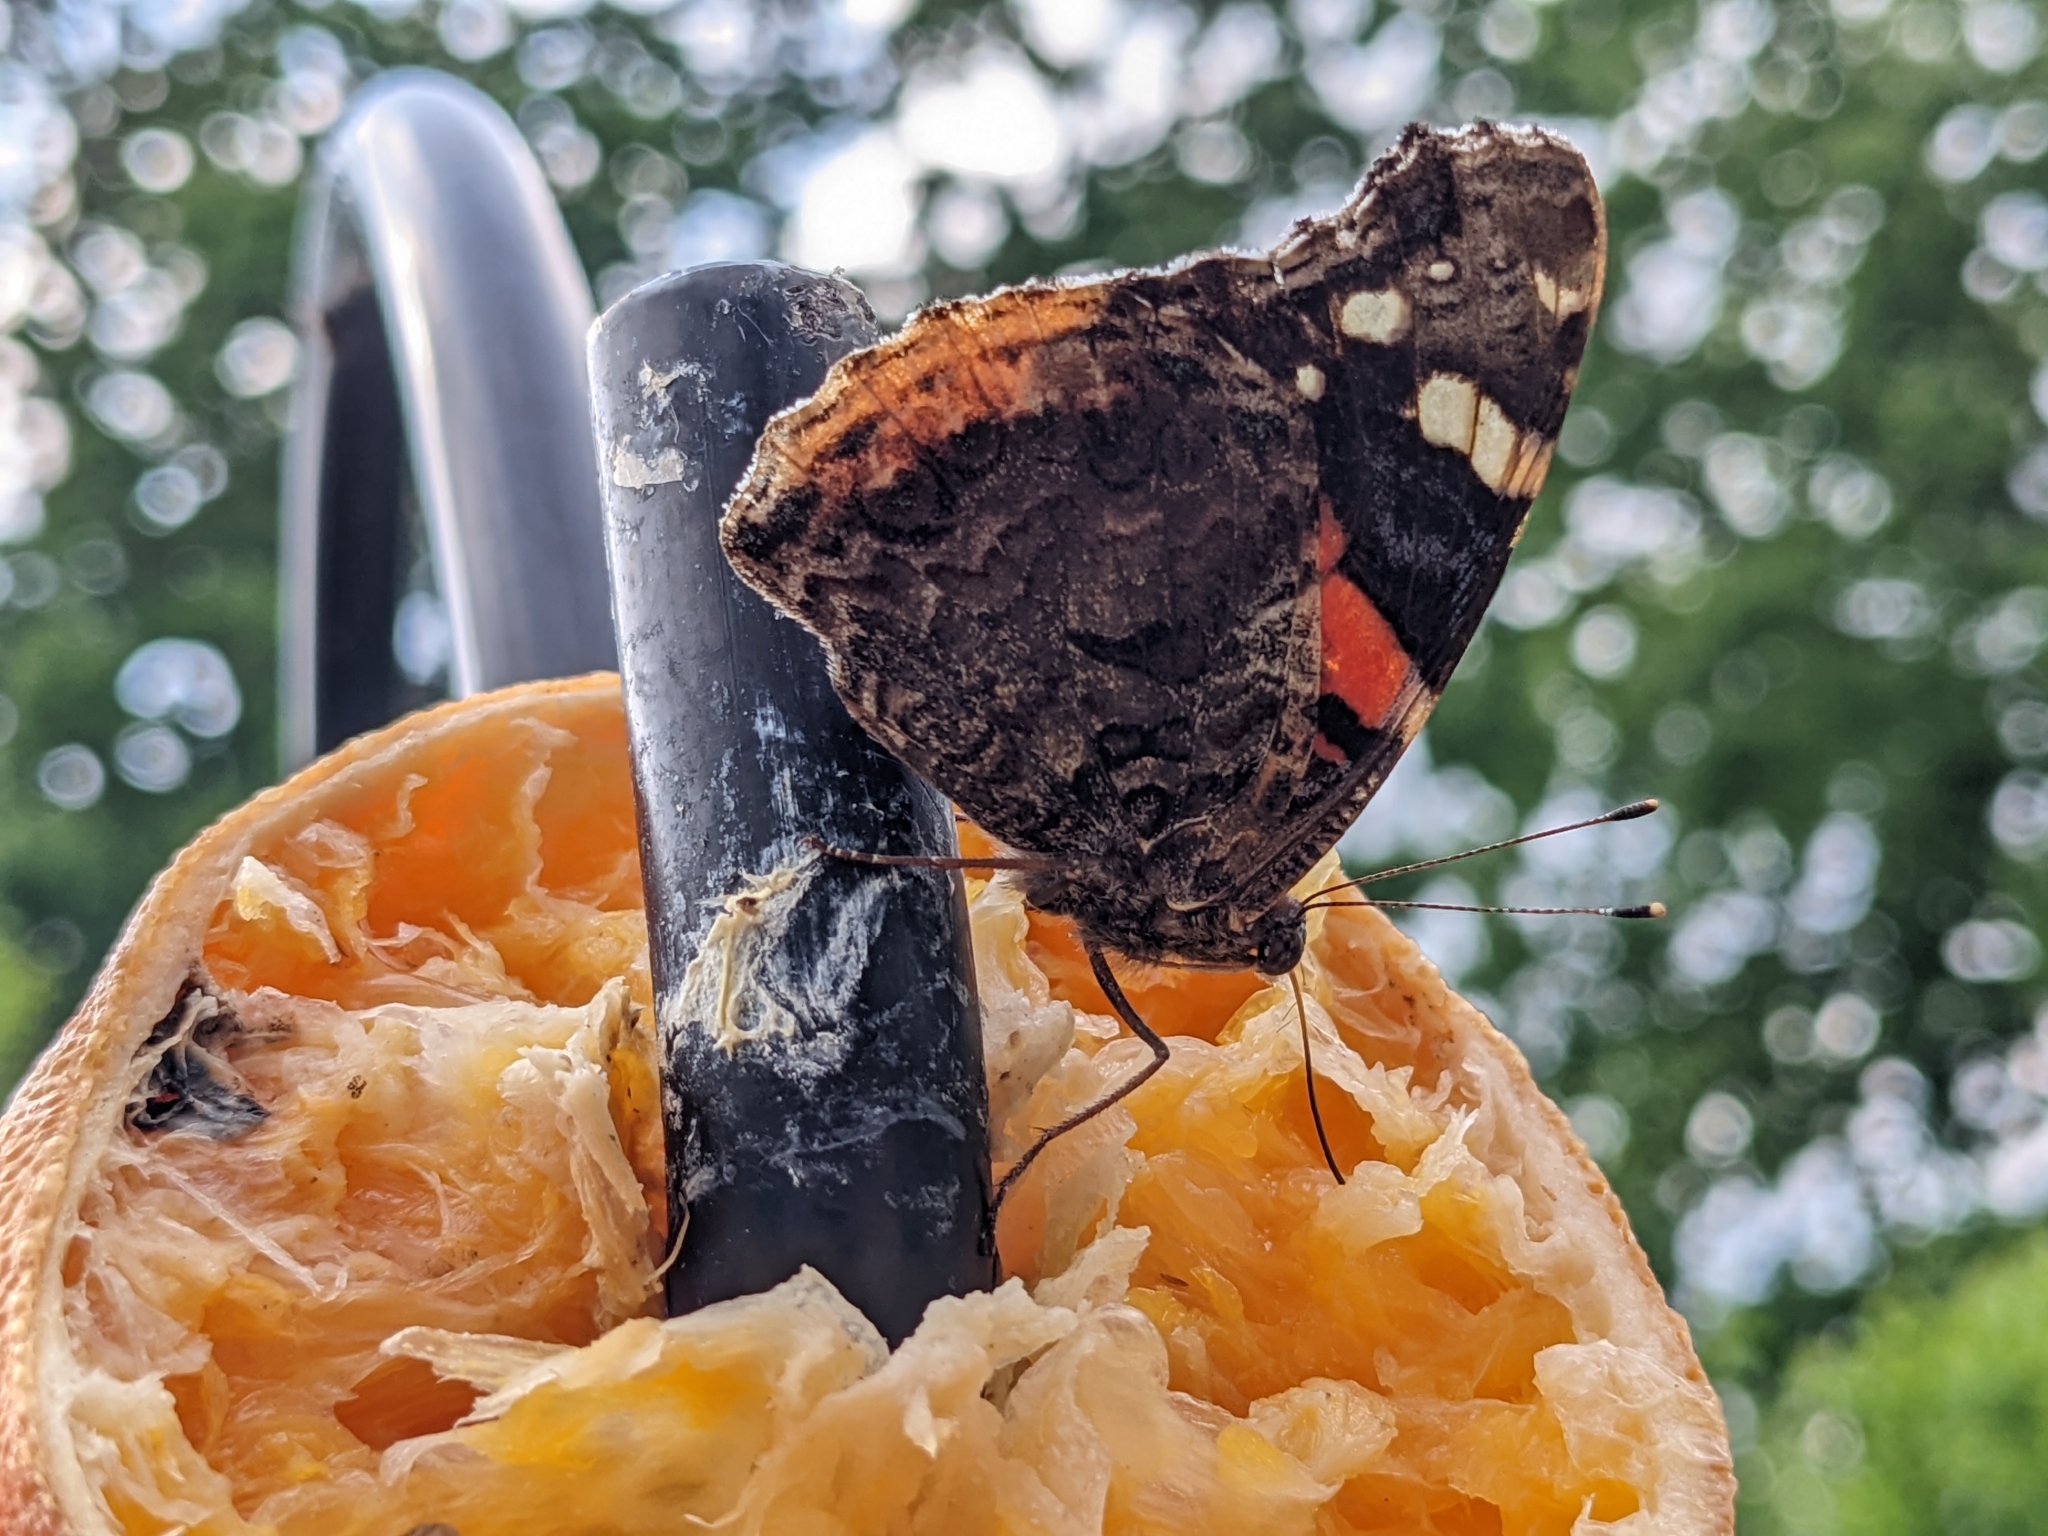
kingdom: Animalia
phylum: Arthropoda
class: Insecta
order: Lepidoptera
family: Nymphalidae
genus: Vanessa
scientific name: Vanessa atalanta
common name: Red admiral
